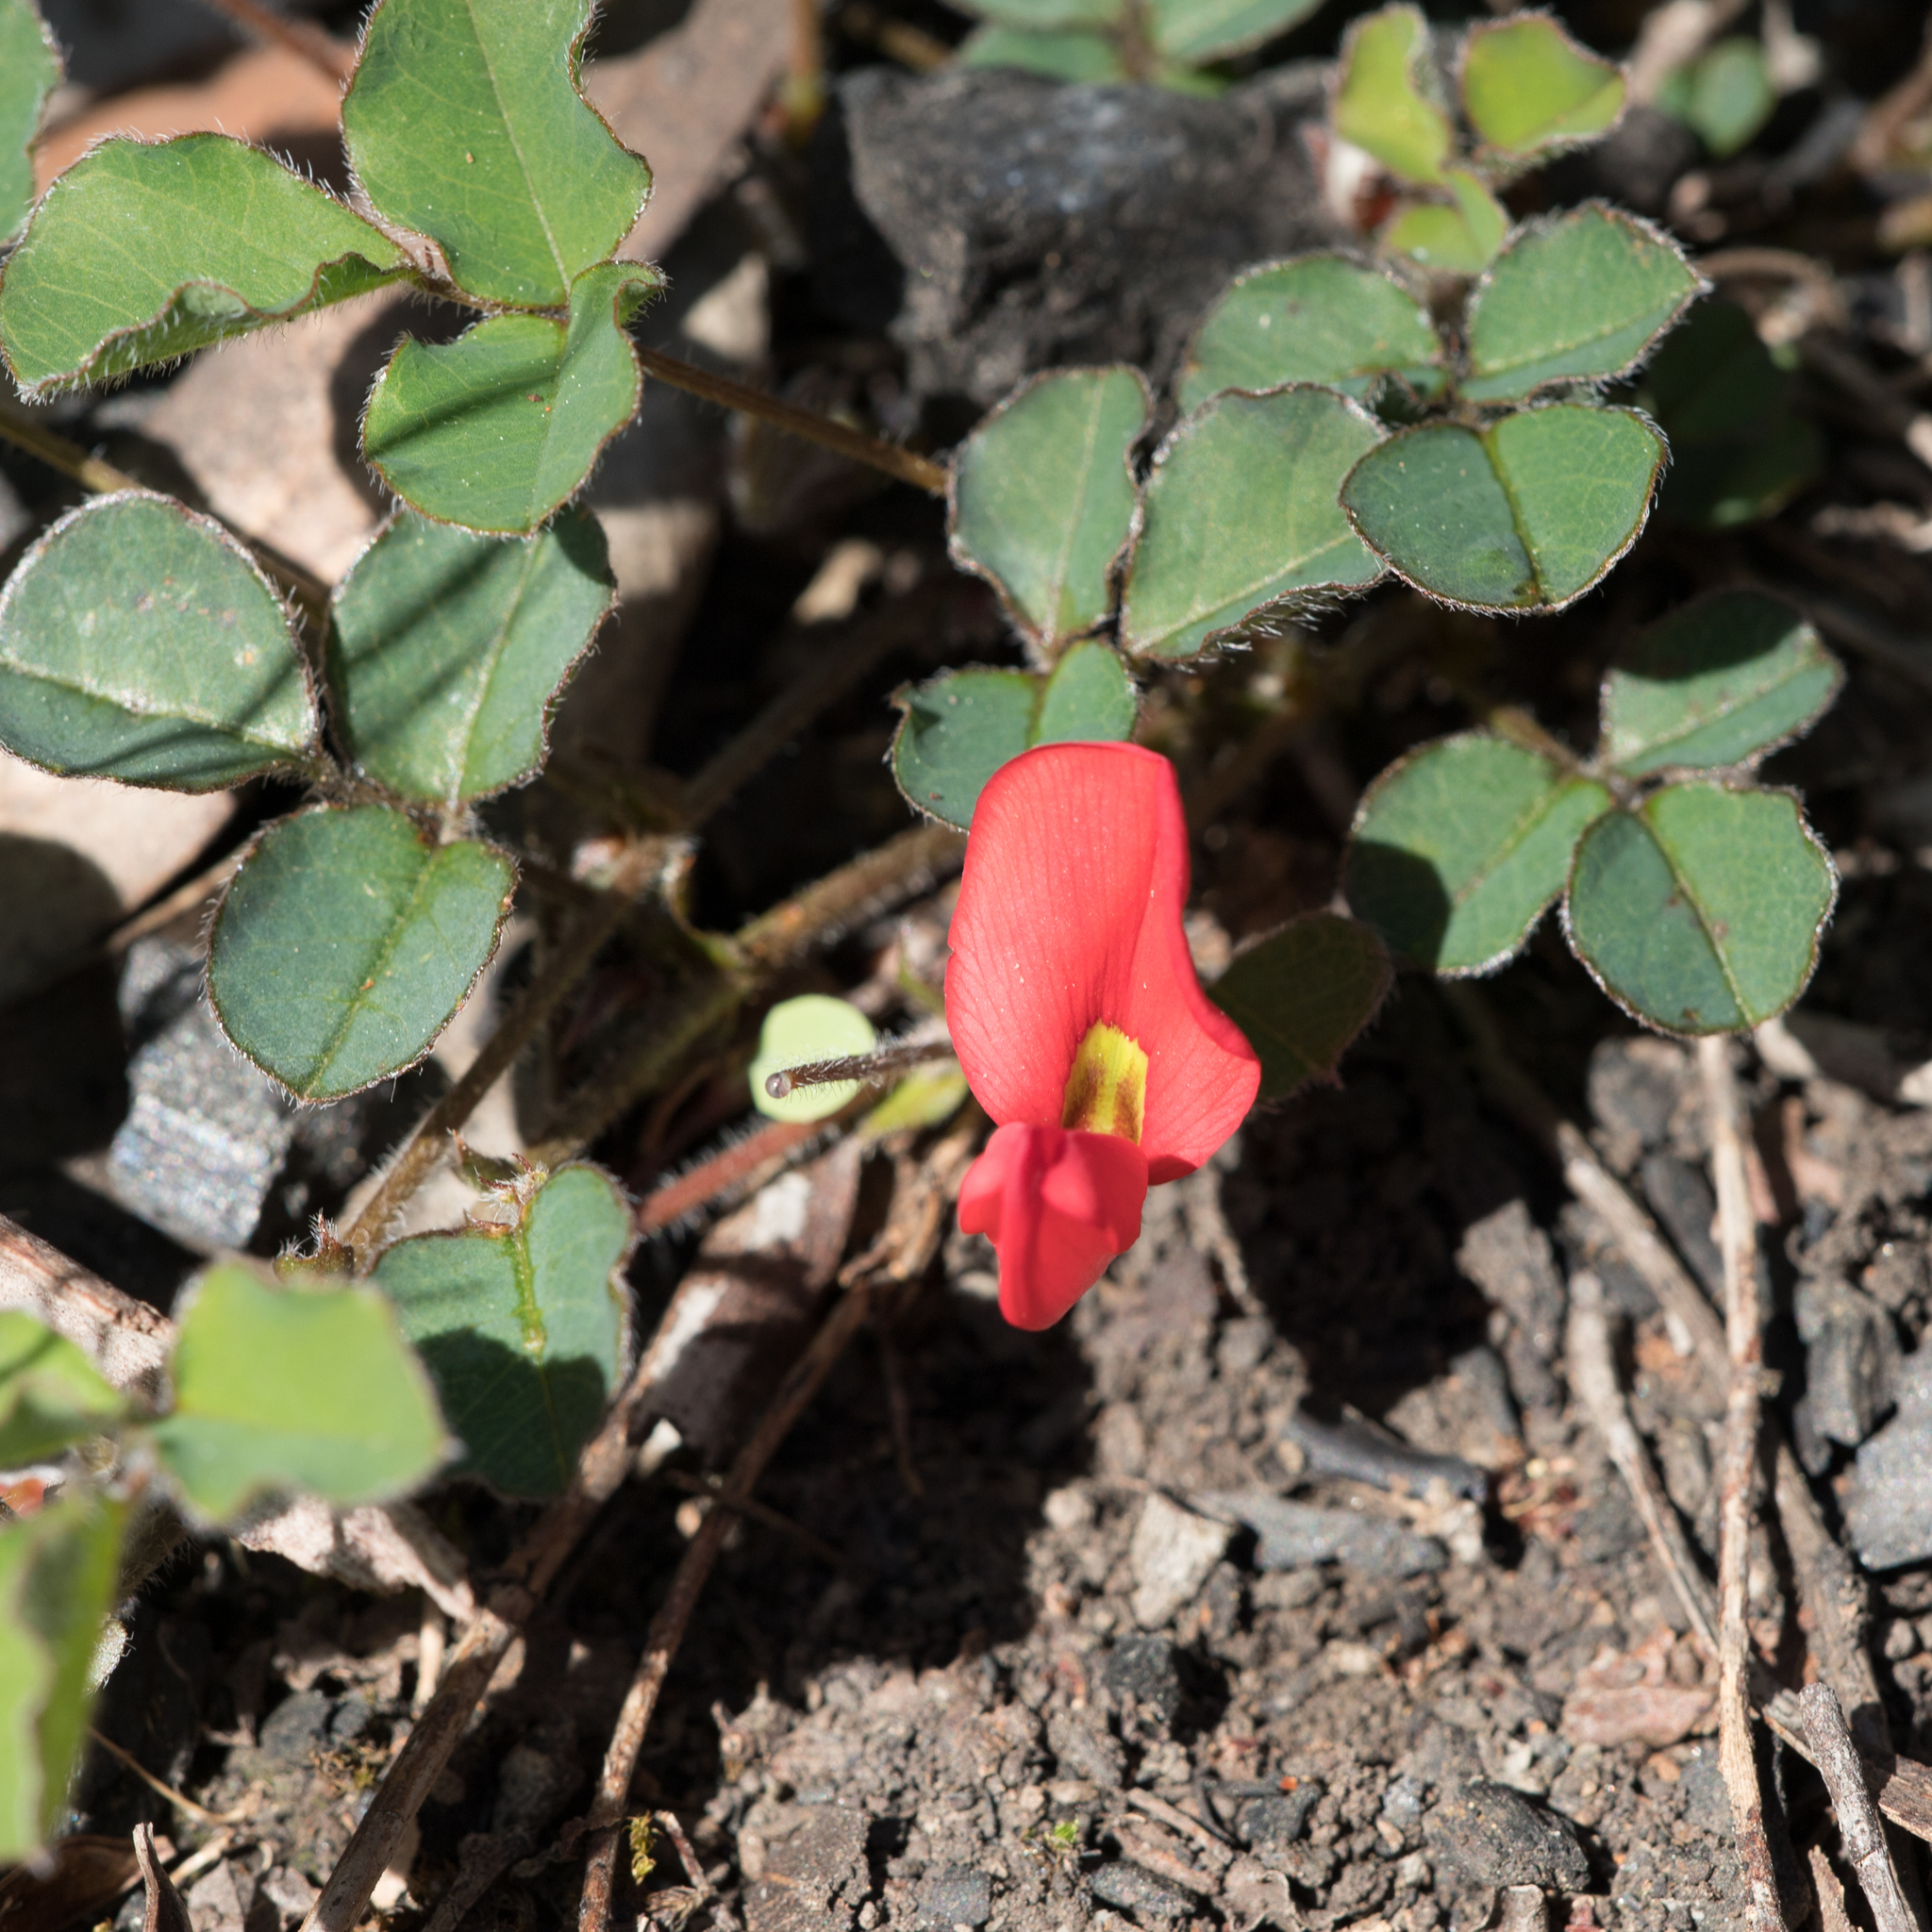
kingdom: Plantae
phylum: Tracheophyta
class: Magnoliopsida
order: Fabales
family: Fabaceae
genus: Kennedia
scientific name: Kennedia prostrata
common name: Running-postman
